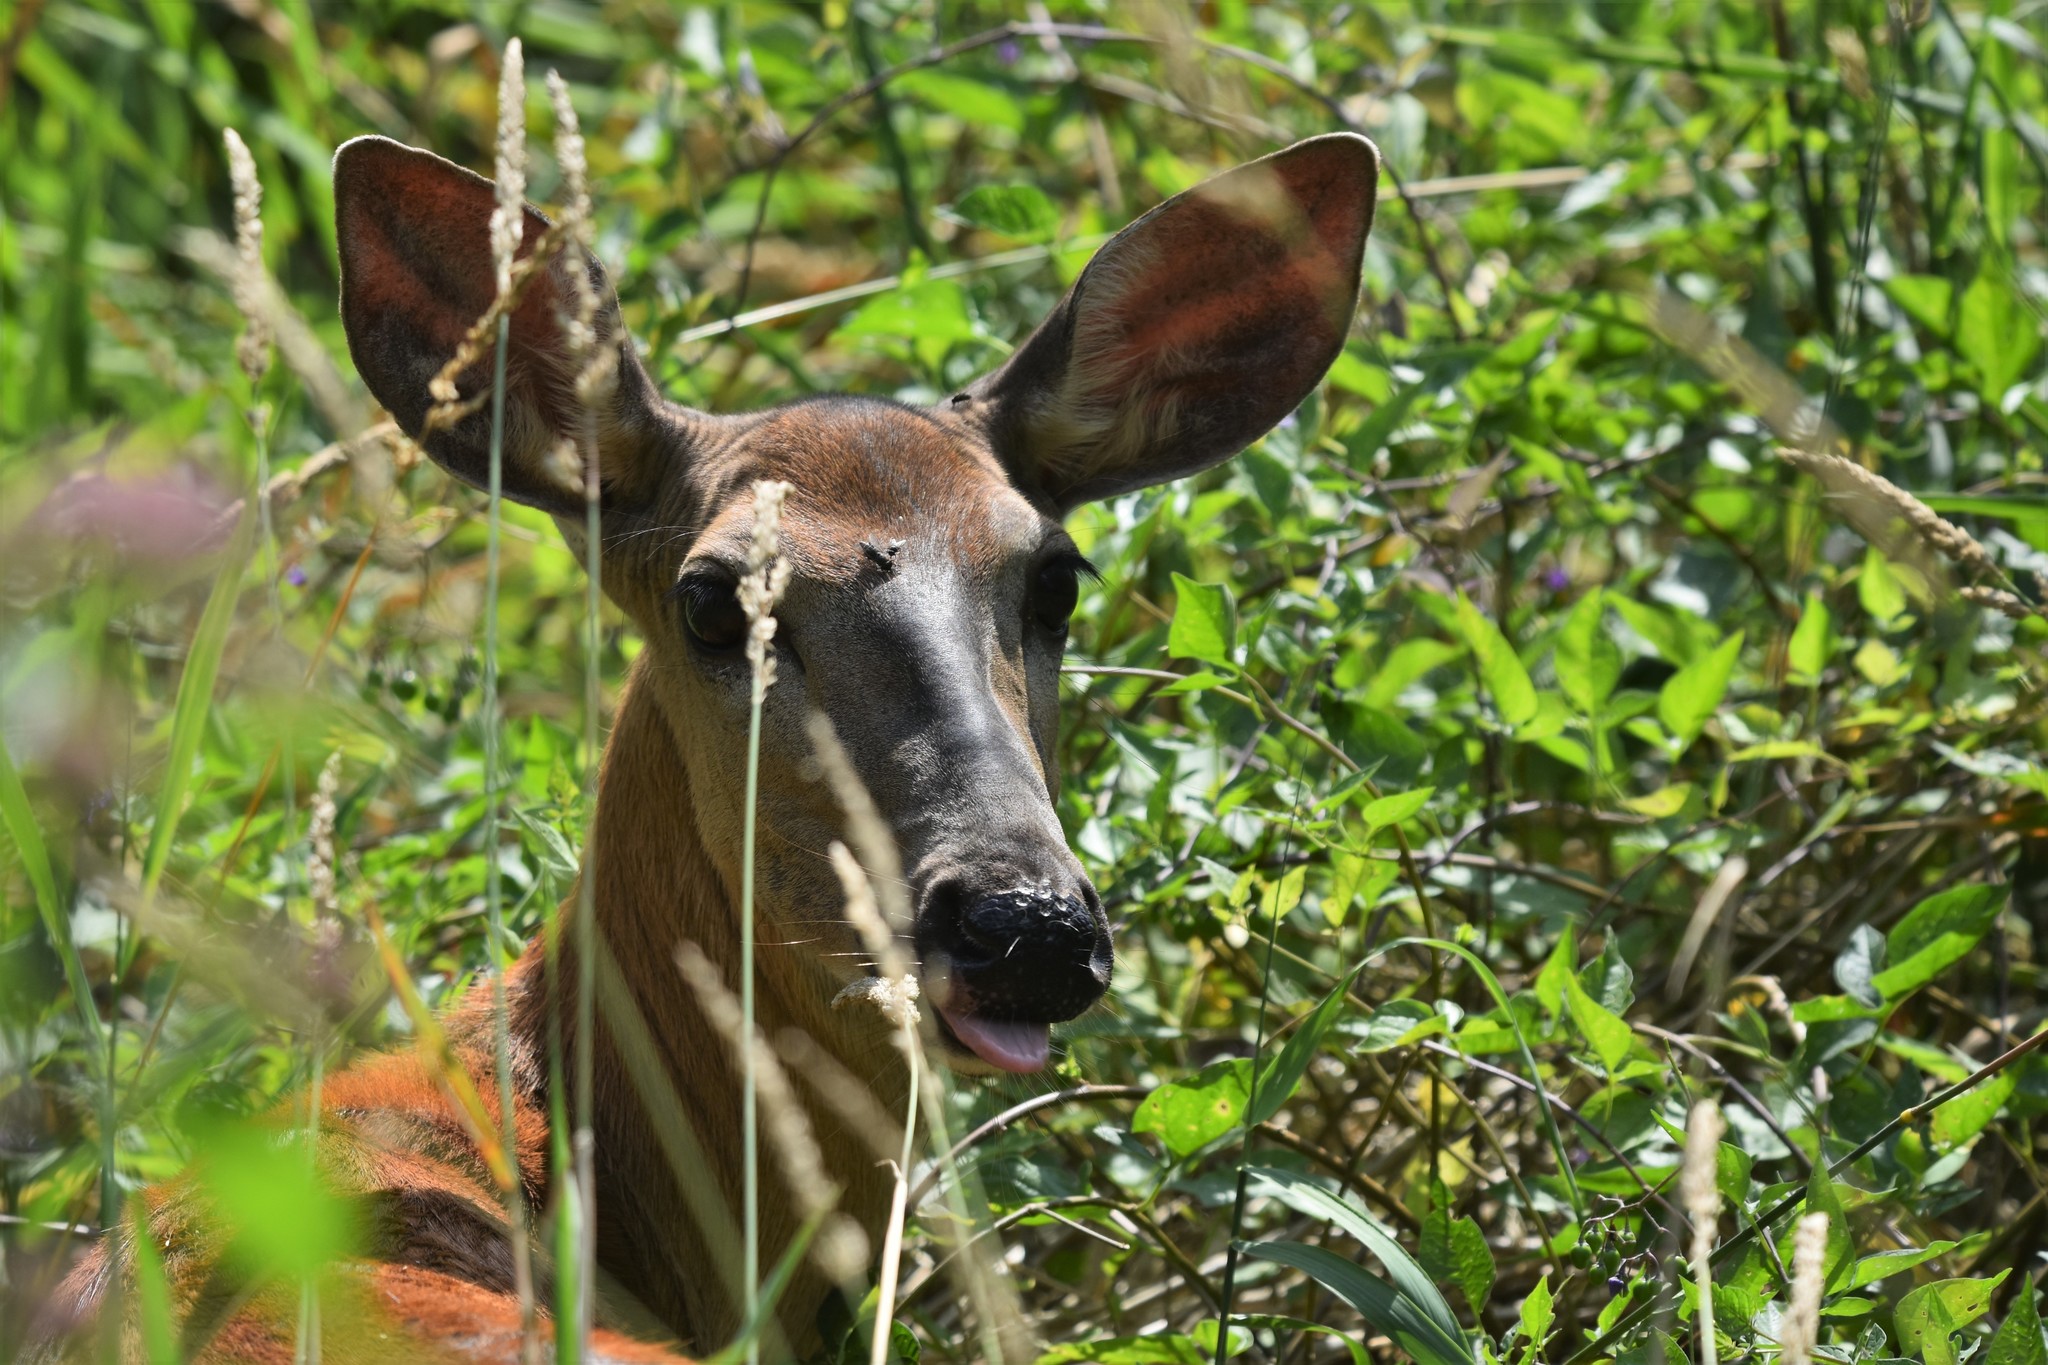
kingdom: Animalia
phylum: Chordata
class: Mammalia
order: Artiodactyla
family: Cervidae
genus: Odocoileus
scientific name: Odocoileus virginianus
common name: White-tailed deer
